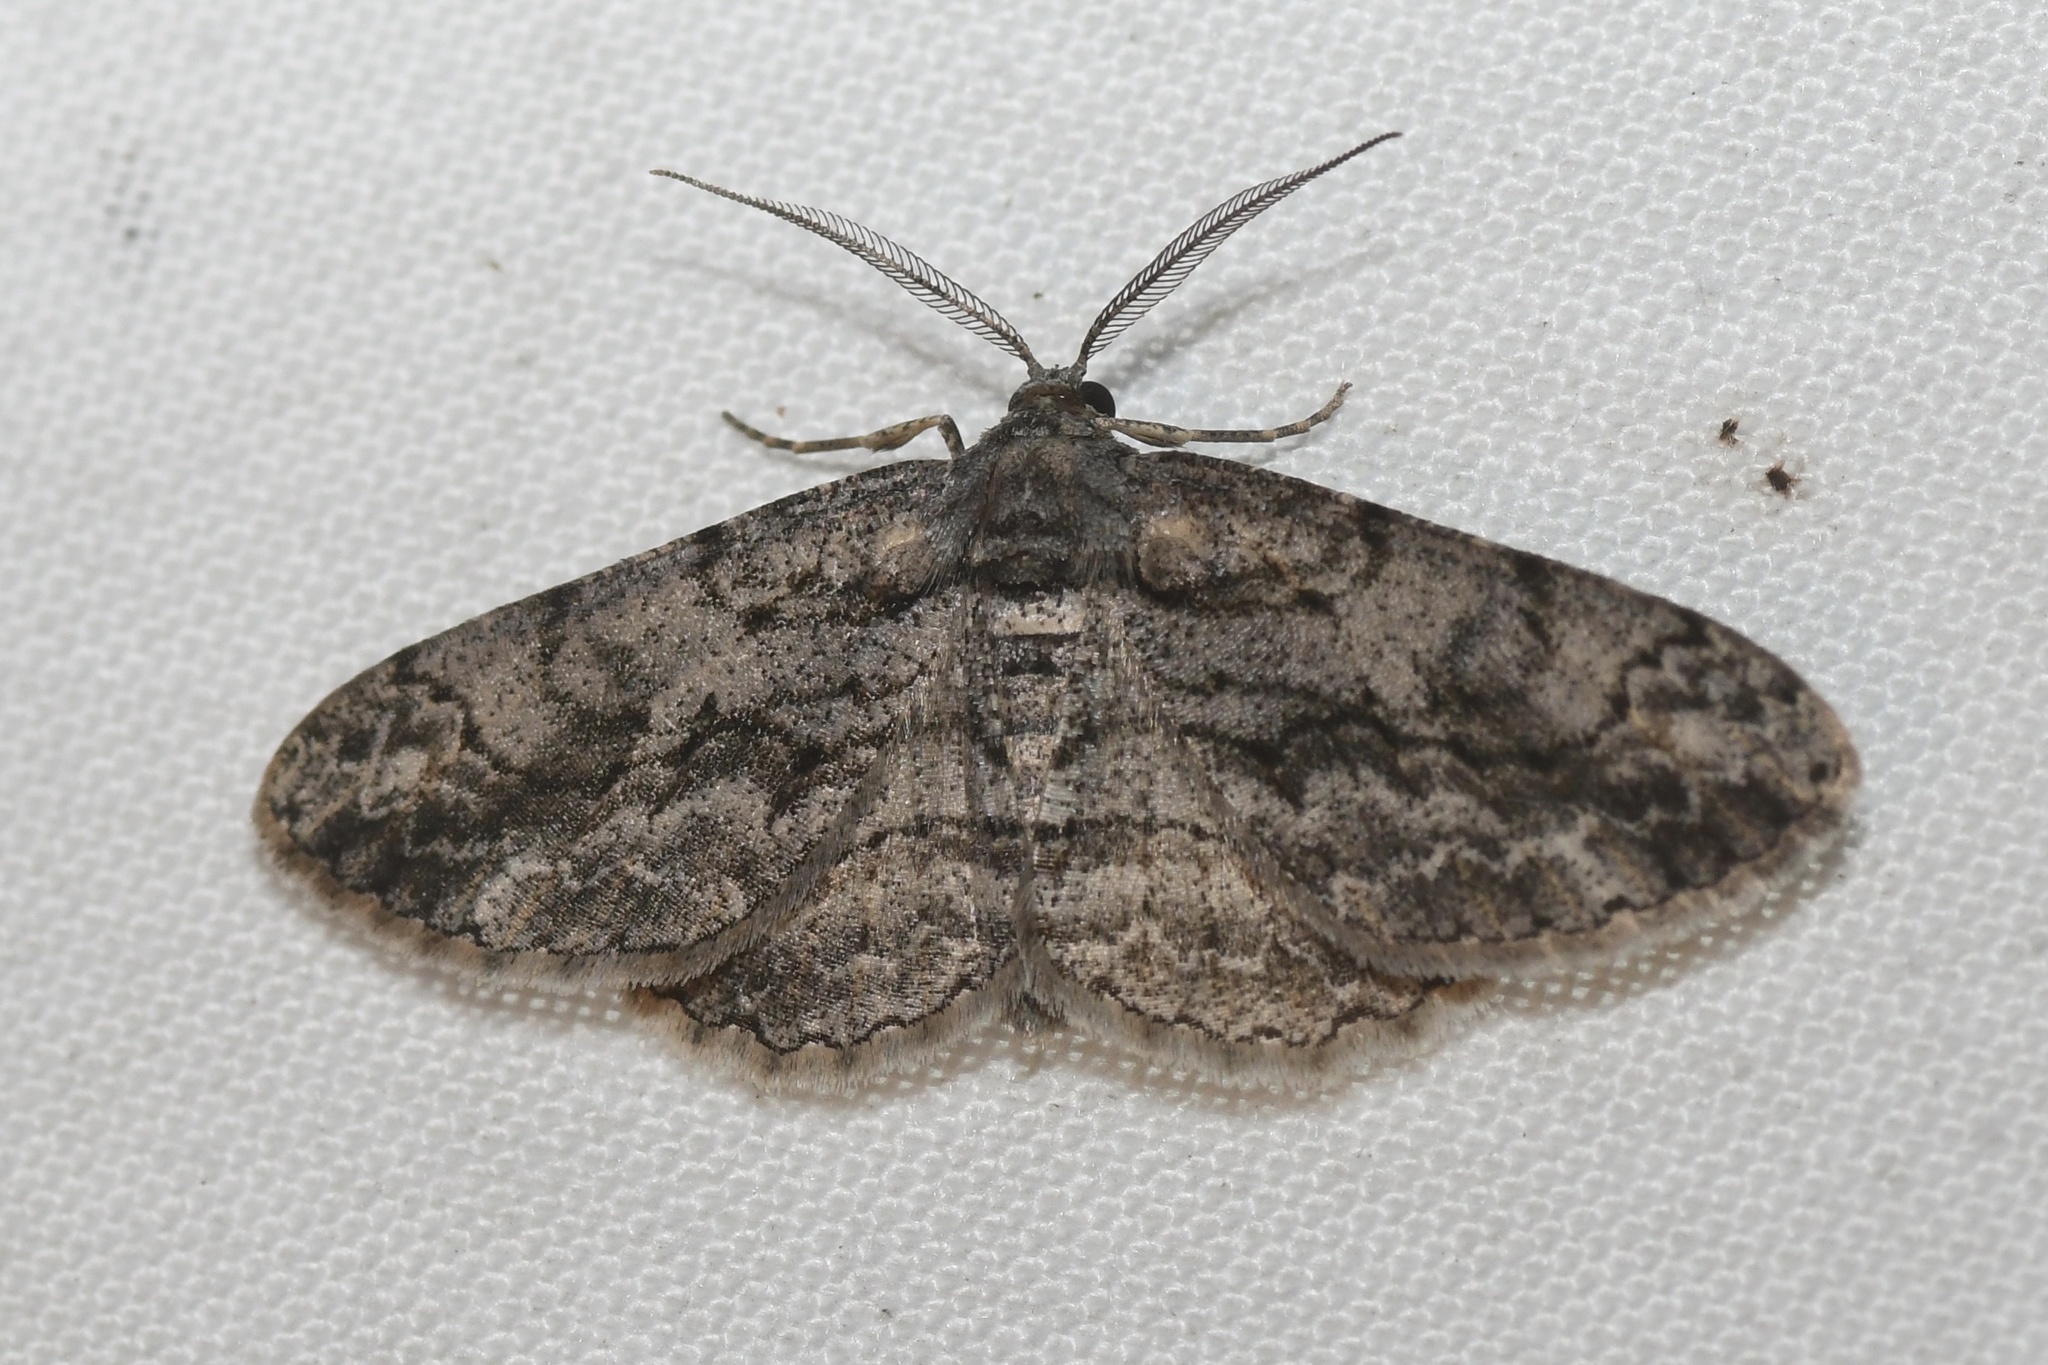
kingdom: Animalia
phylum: Arthropoda
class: Insecta
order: Lepidoptera
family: Geometridae
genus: Anavitrinella
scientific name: Anavitrinella pampinaria
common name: Common gray
